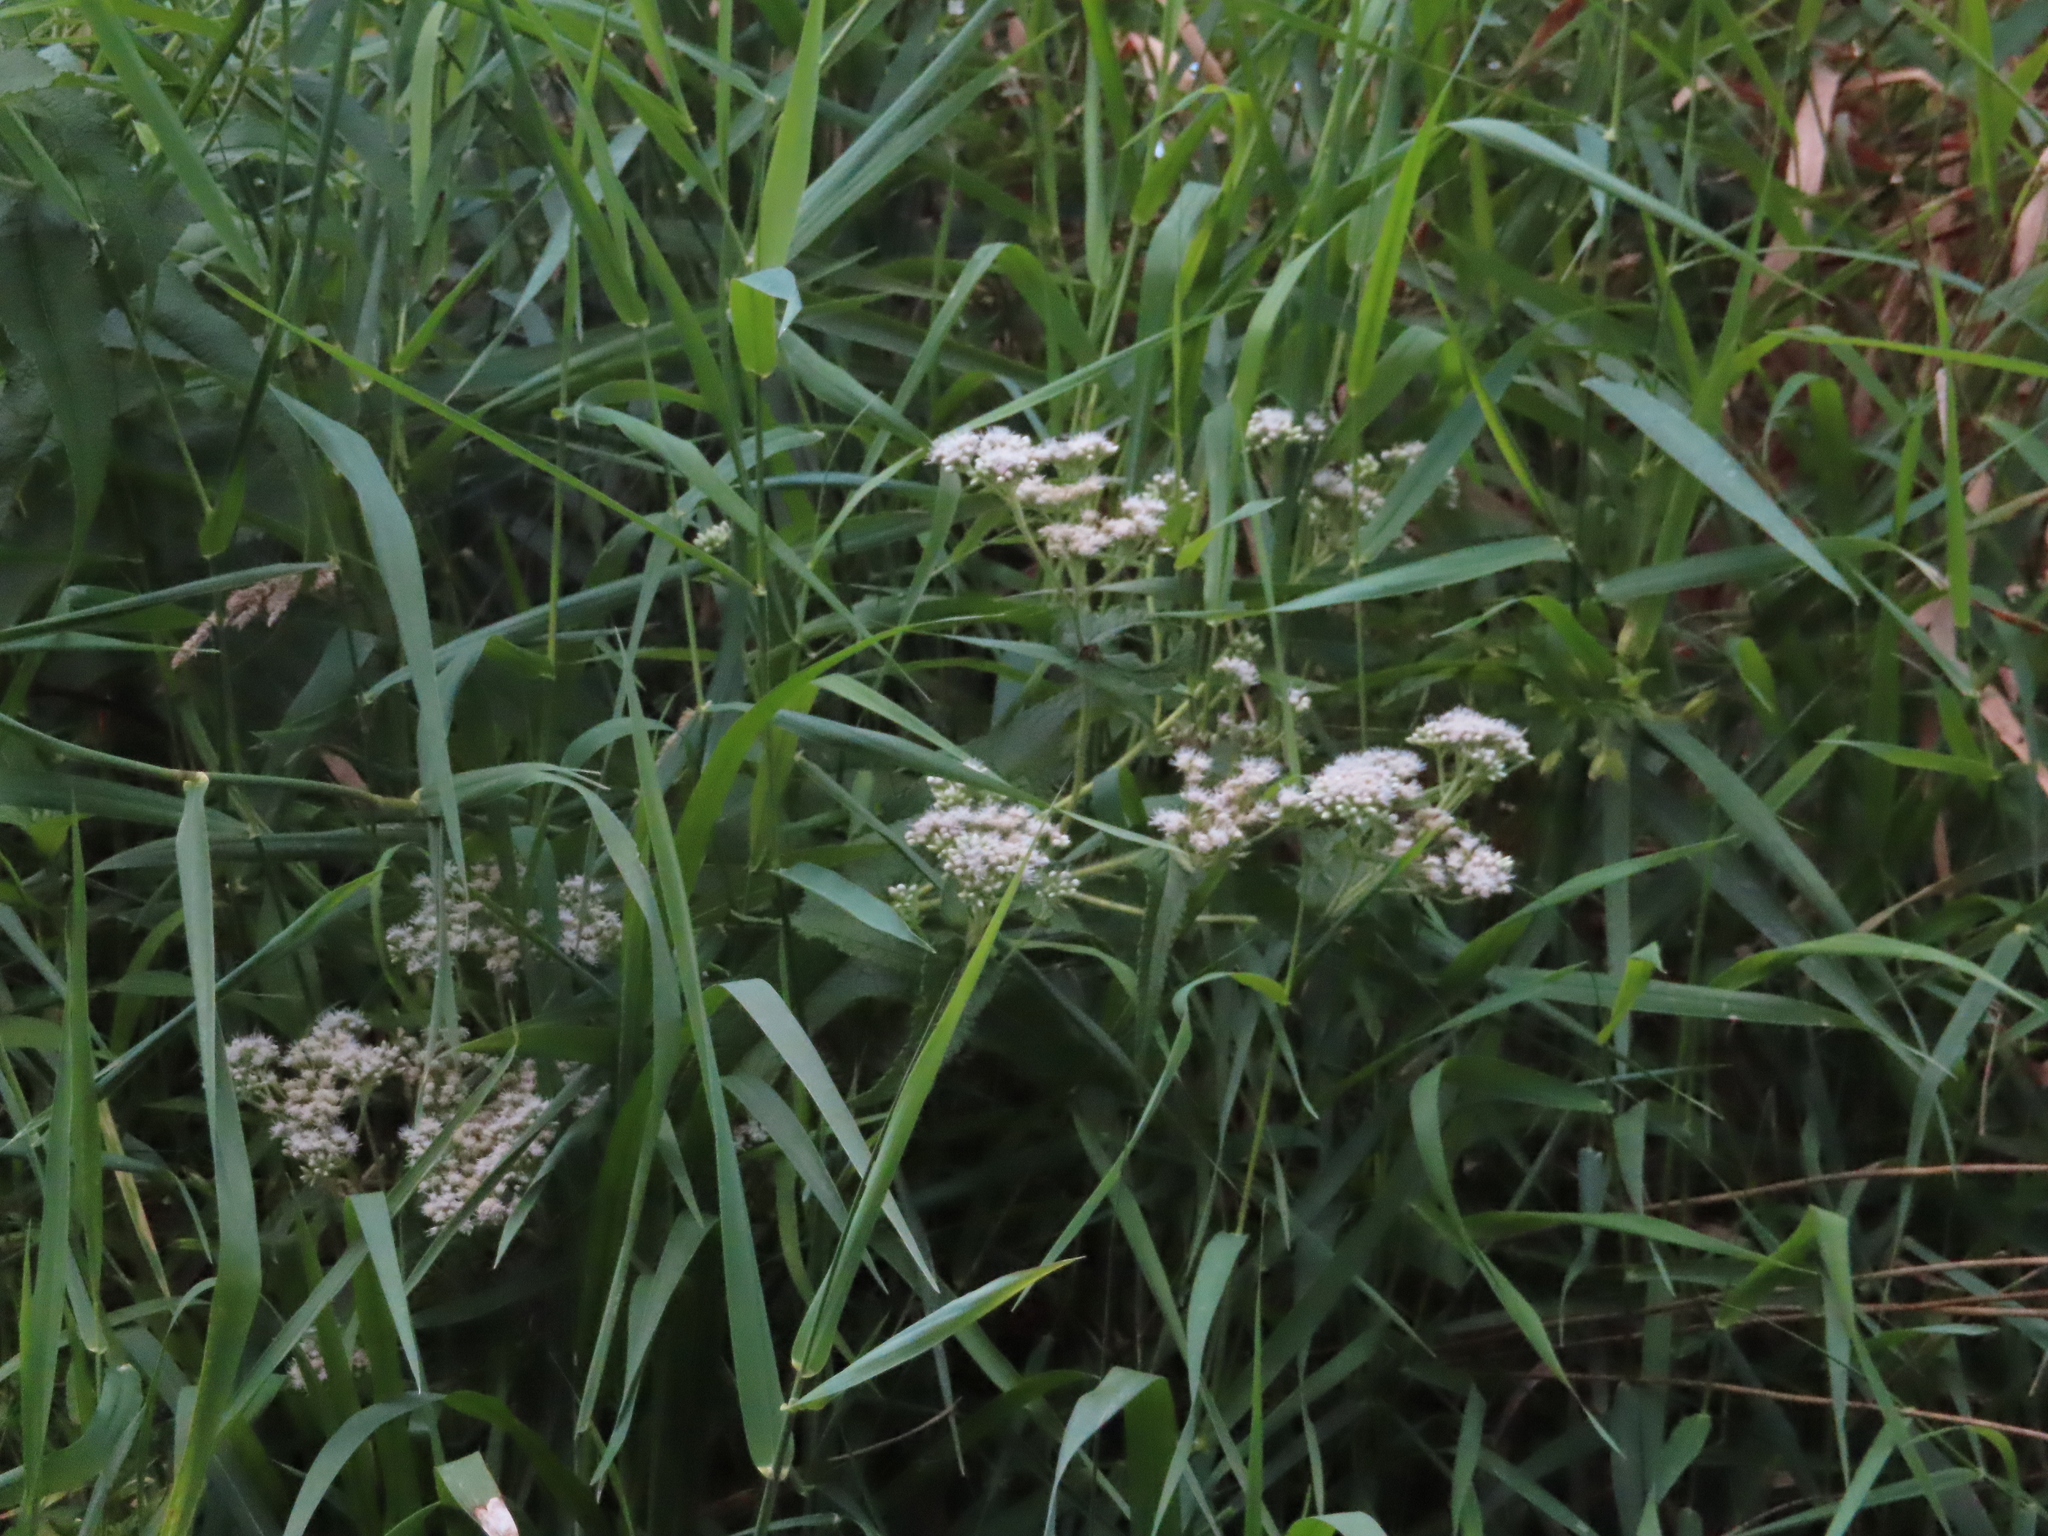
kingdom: Plantae
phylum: Tracheophyta
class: Magnoliopsida
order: Asterales
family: Asteraceae
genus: Ageratina
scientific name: Ageratina altissima
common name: White snakeroot
